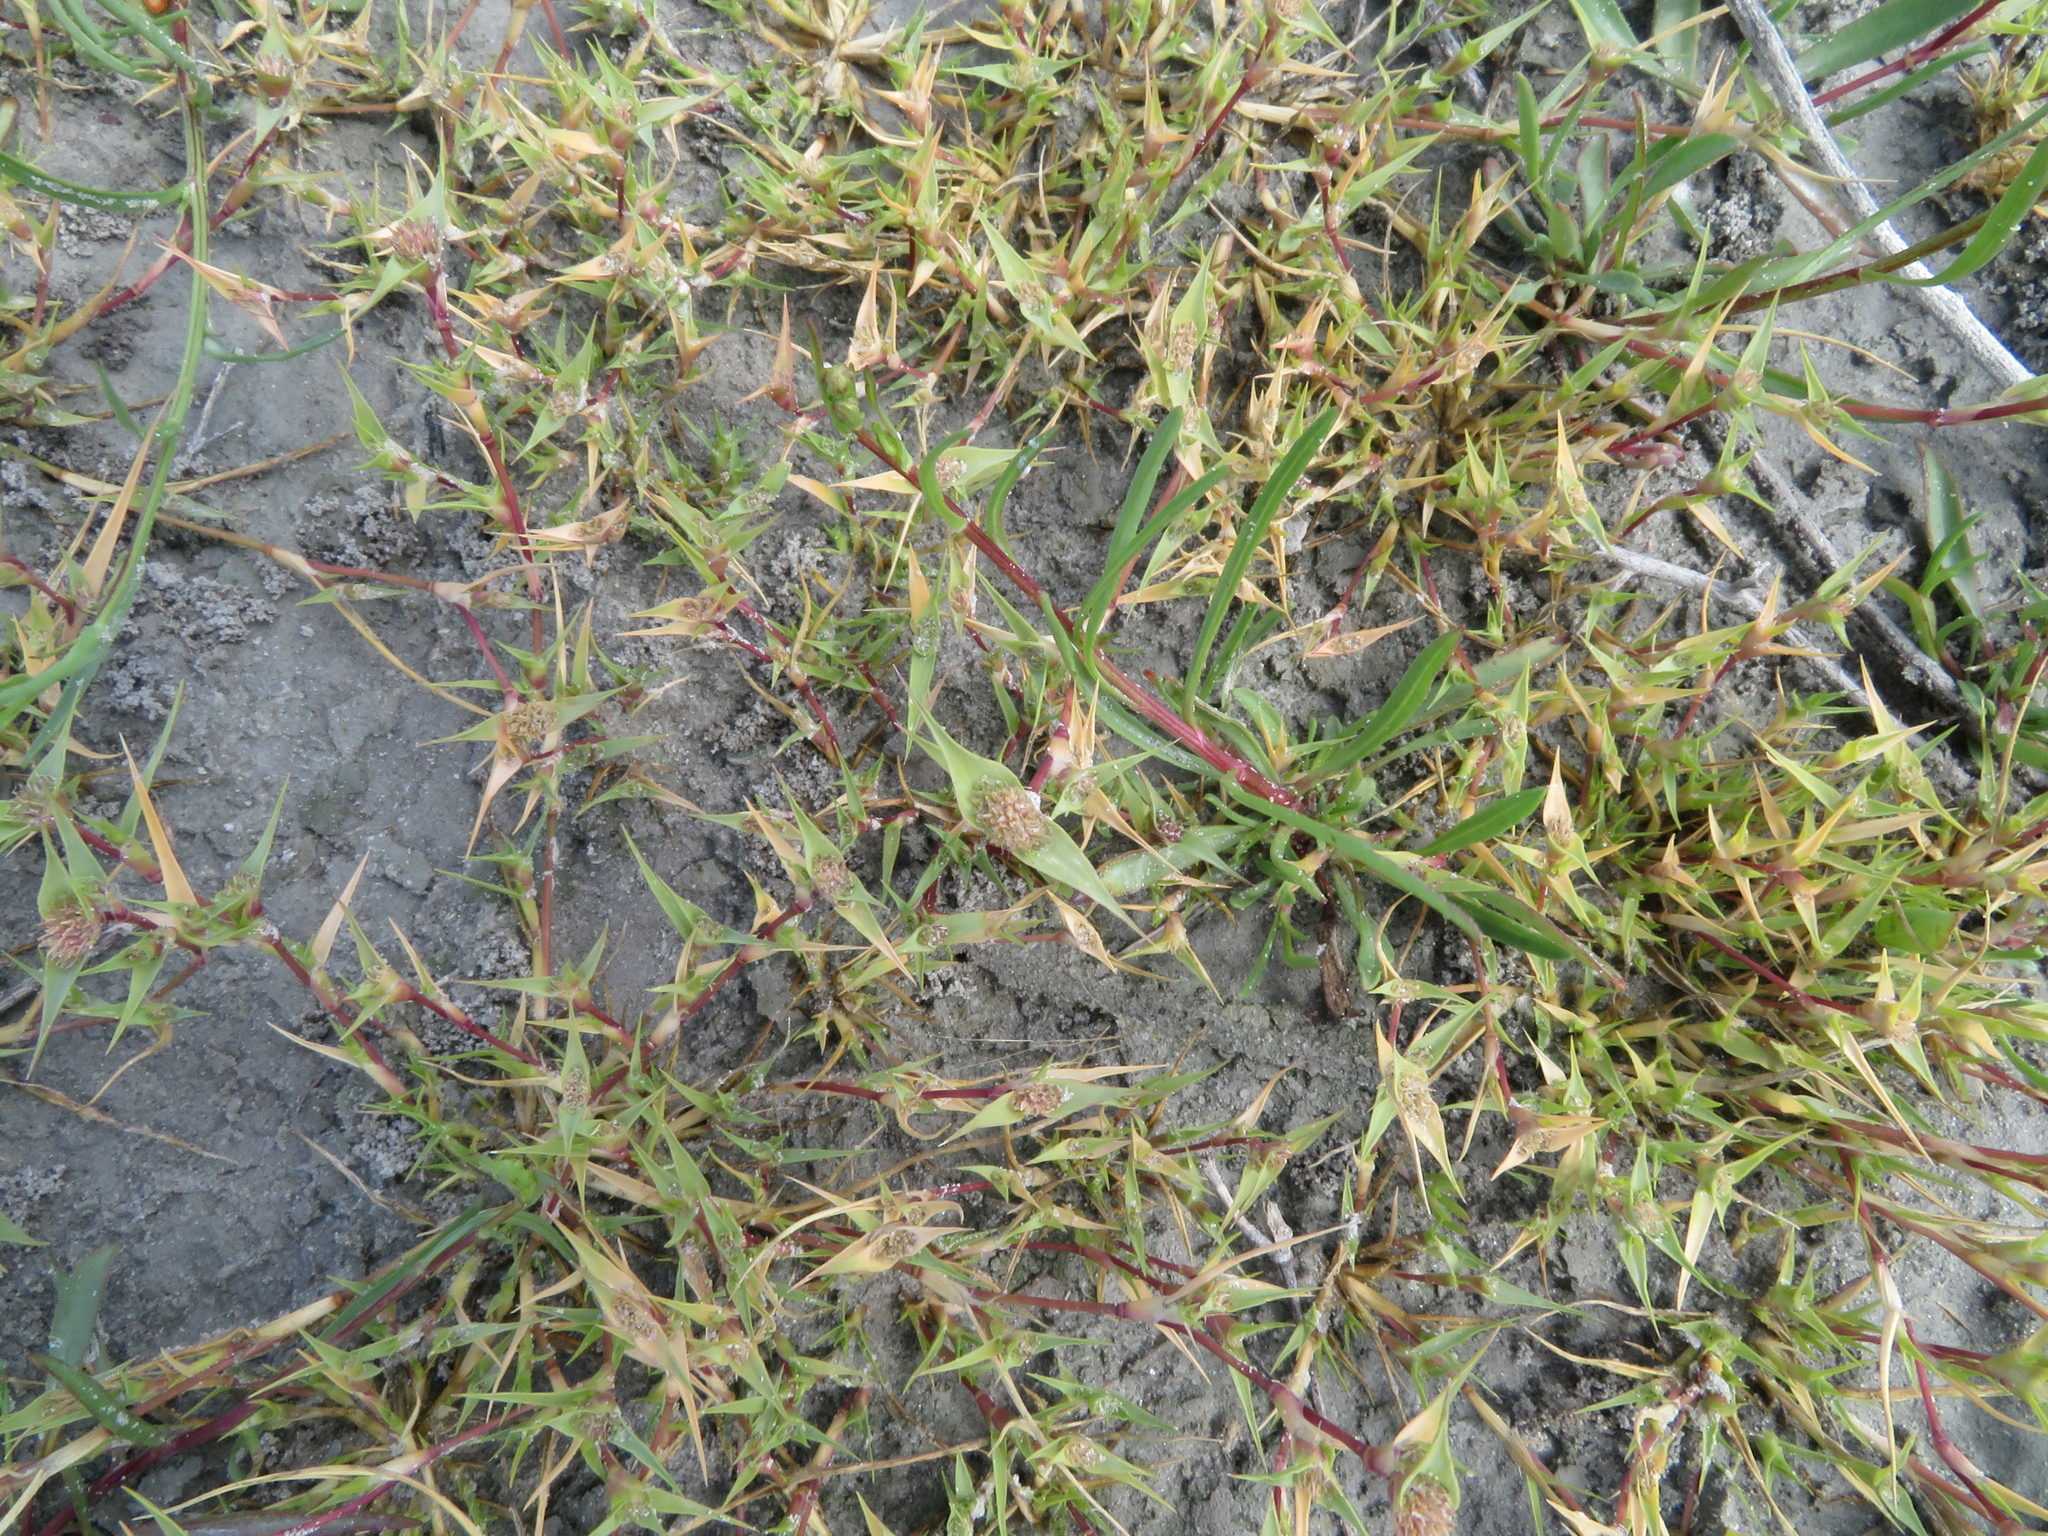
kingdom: Plantae
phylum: Tracheophyta
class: Liliopsida
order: Poales
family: Poaceae
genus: Sporobolus
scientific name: Sporobolus aculeatus
